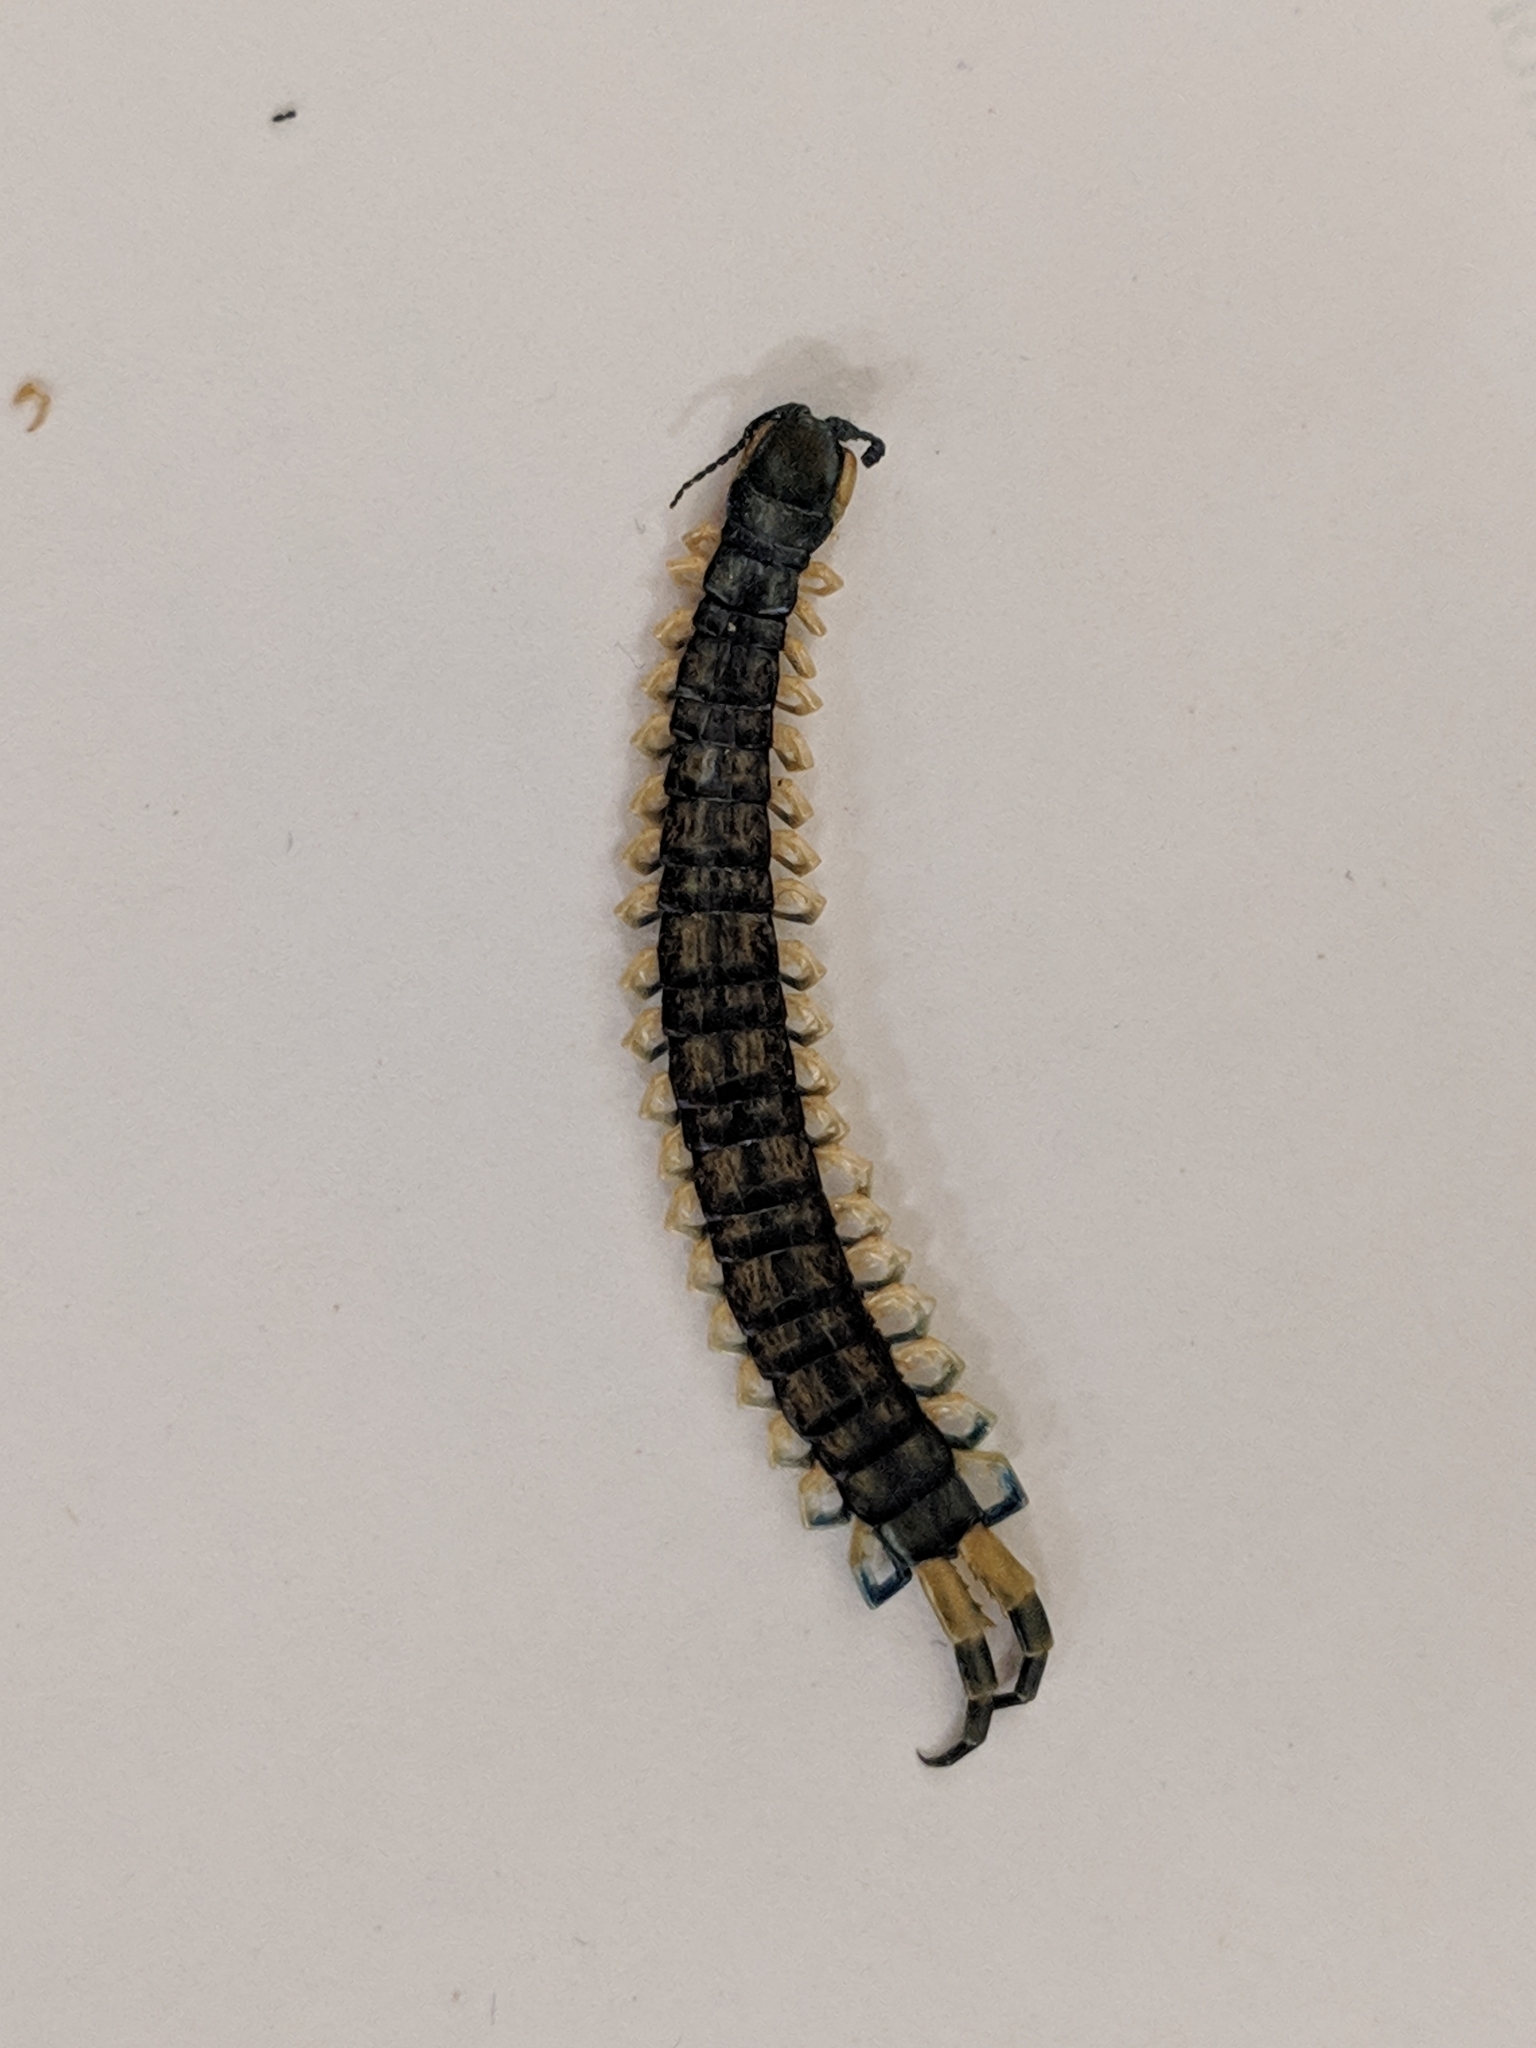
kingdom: Animalia
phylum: Arthropoda
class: Chilopoda
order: Scolopendromorpha
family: Scolopendridae
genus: Hemiscolopendra
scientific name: Hemiscolopendra marginata
